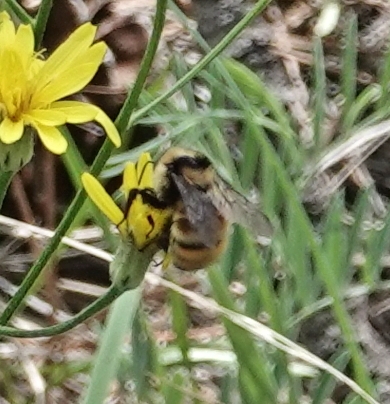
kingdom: Animalia
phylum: Arthropoda
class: Insecta
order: Hymenoptera
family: Apidae
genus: Bombus
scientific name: Bombus appositus
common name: White-shouldered bumble bee
